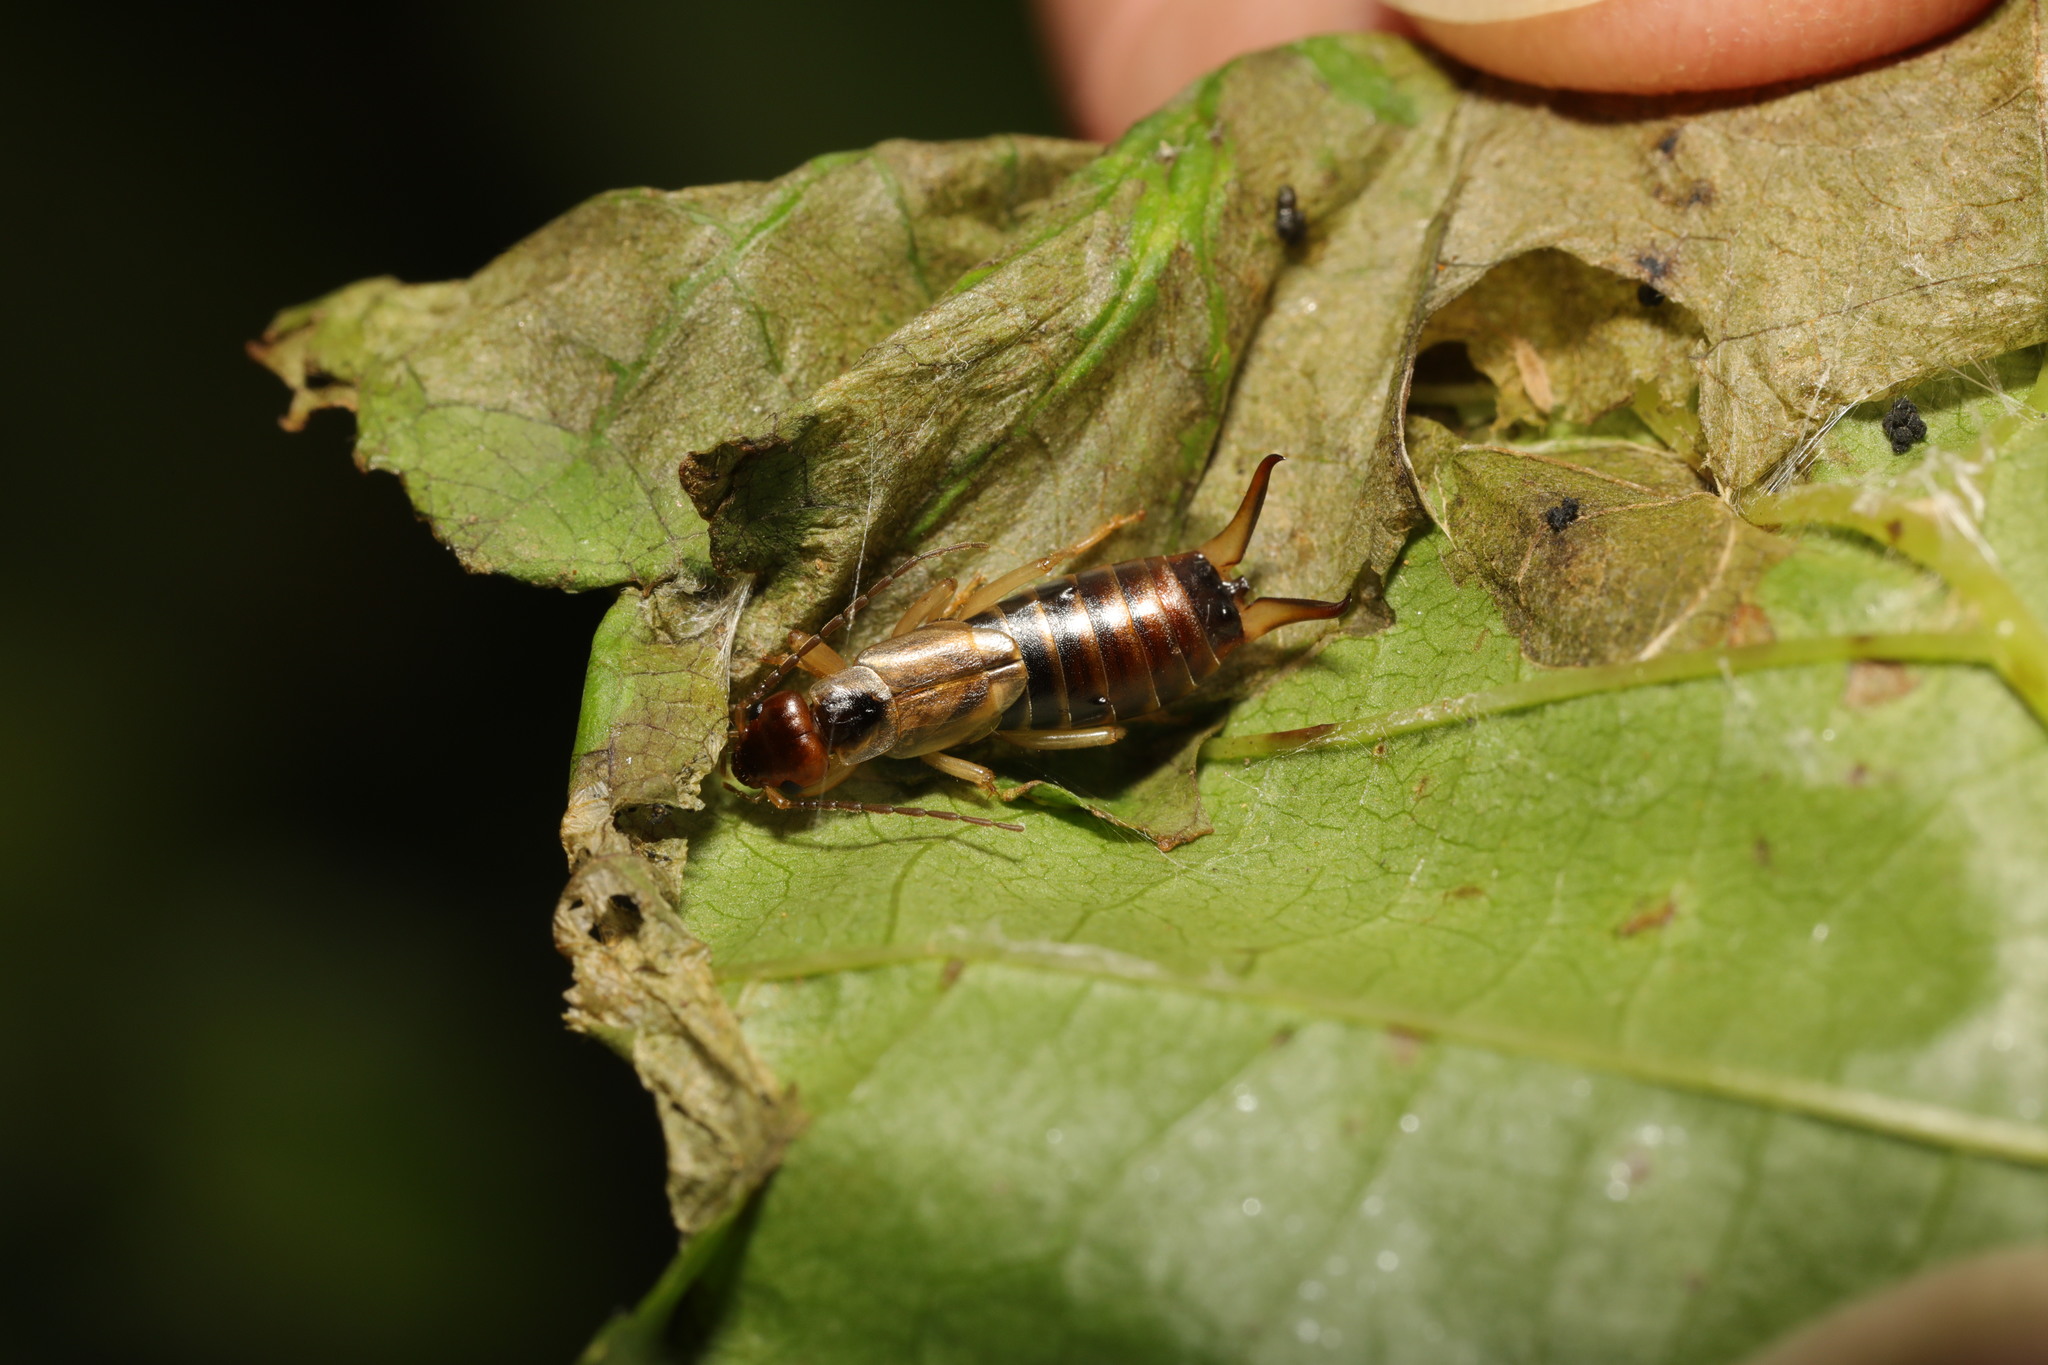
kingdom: Animalia
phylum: Arthropoda
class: Insecta
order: Dermaptera
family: Forficulidae
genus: Forficula
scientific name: Forficula
